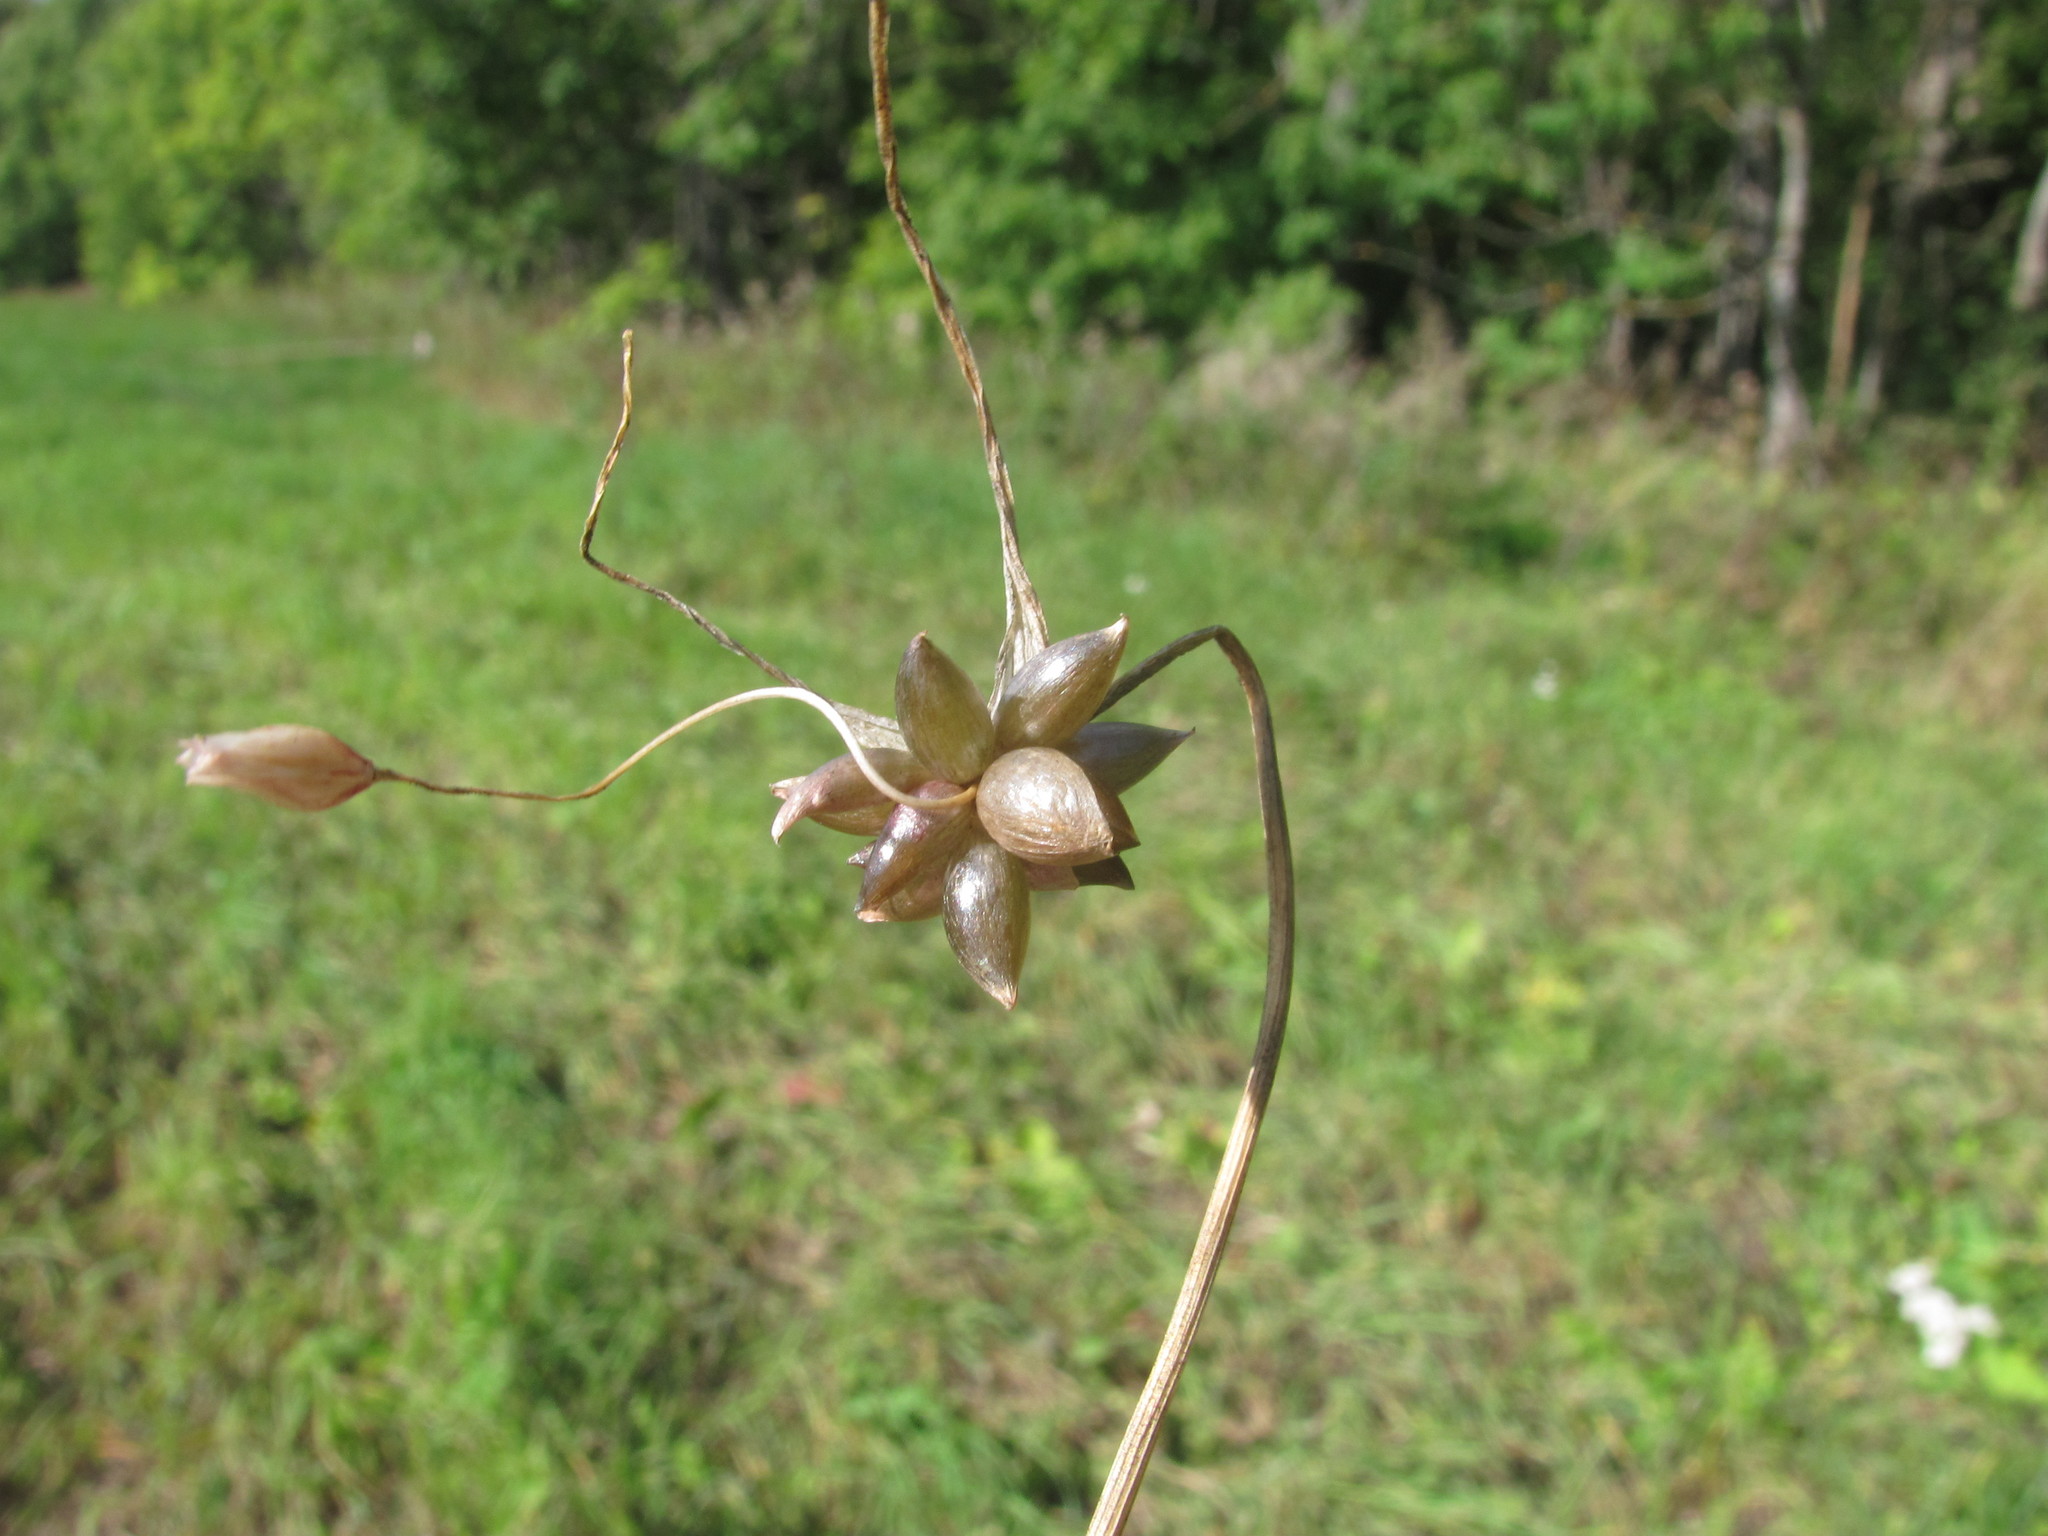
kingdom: Plantae
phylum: Tracheophyta
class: Liliopsida
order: Asparagales
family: Amaryllidaceae
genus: Allium
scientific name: Allium oleraceum
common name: Field garlic
